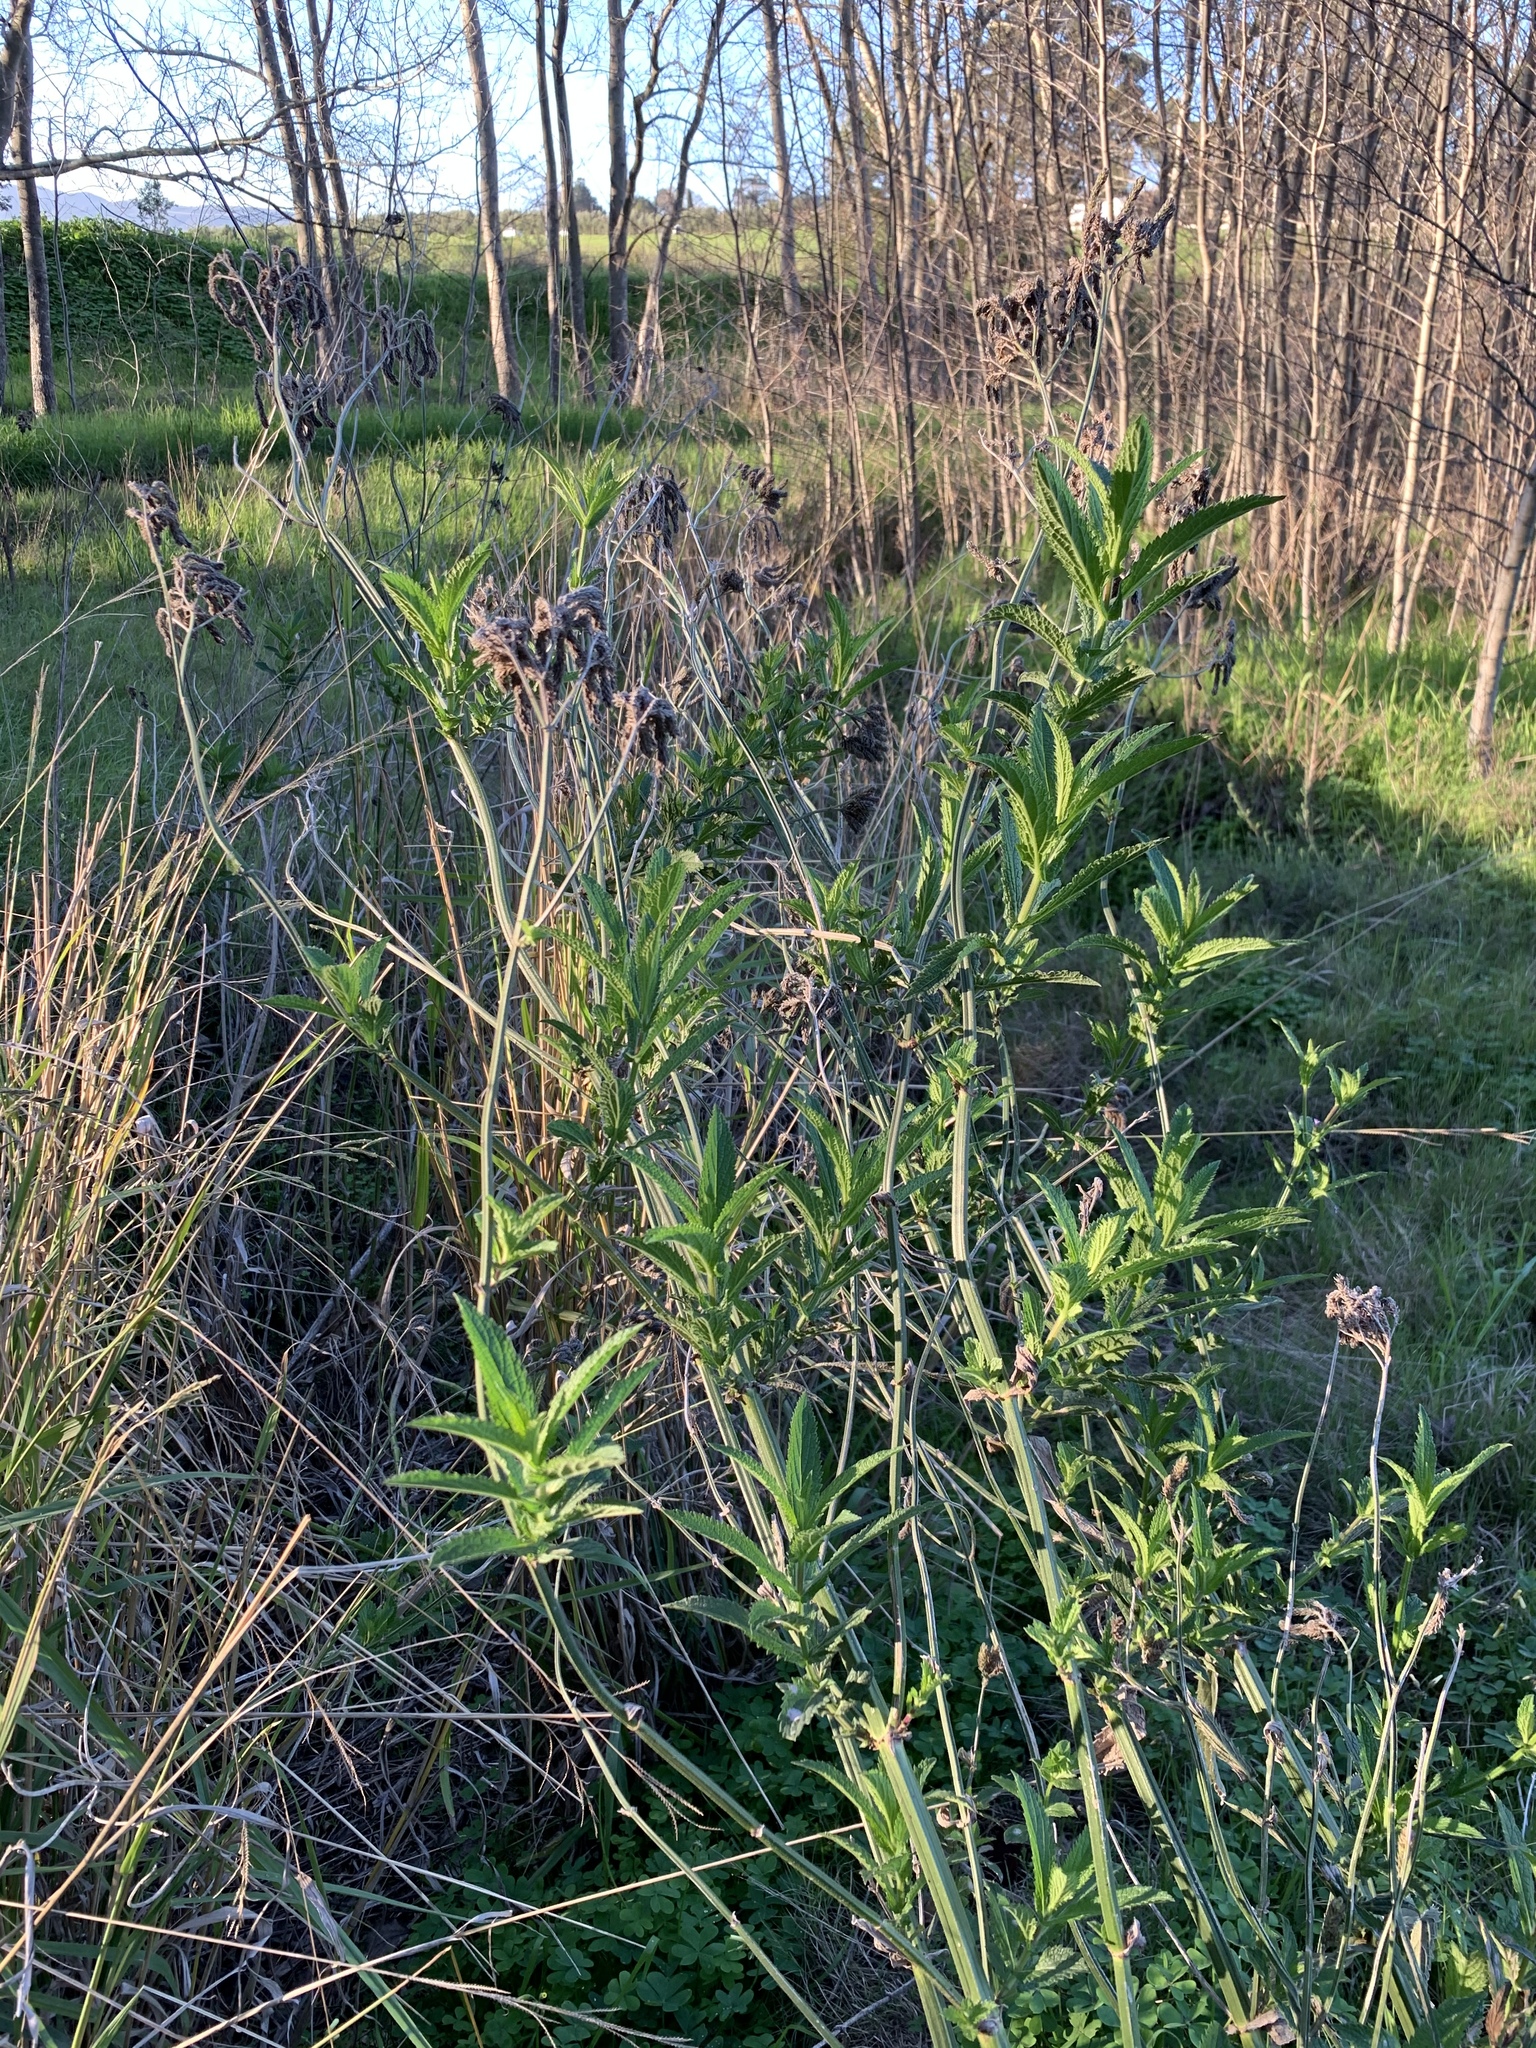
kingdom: Plantae
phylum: Tracheophyta
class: Magnoliopsida
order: Lamiales
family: Verbenaceae
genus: Verbena
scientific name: Verbena bonariensis
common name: Purpletop vervain
